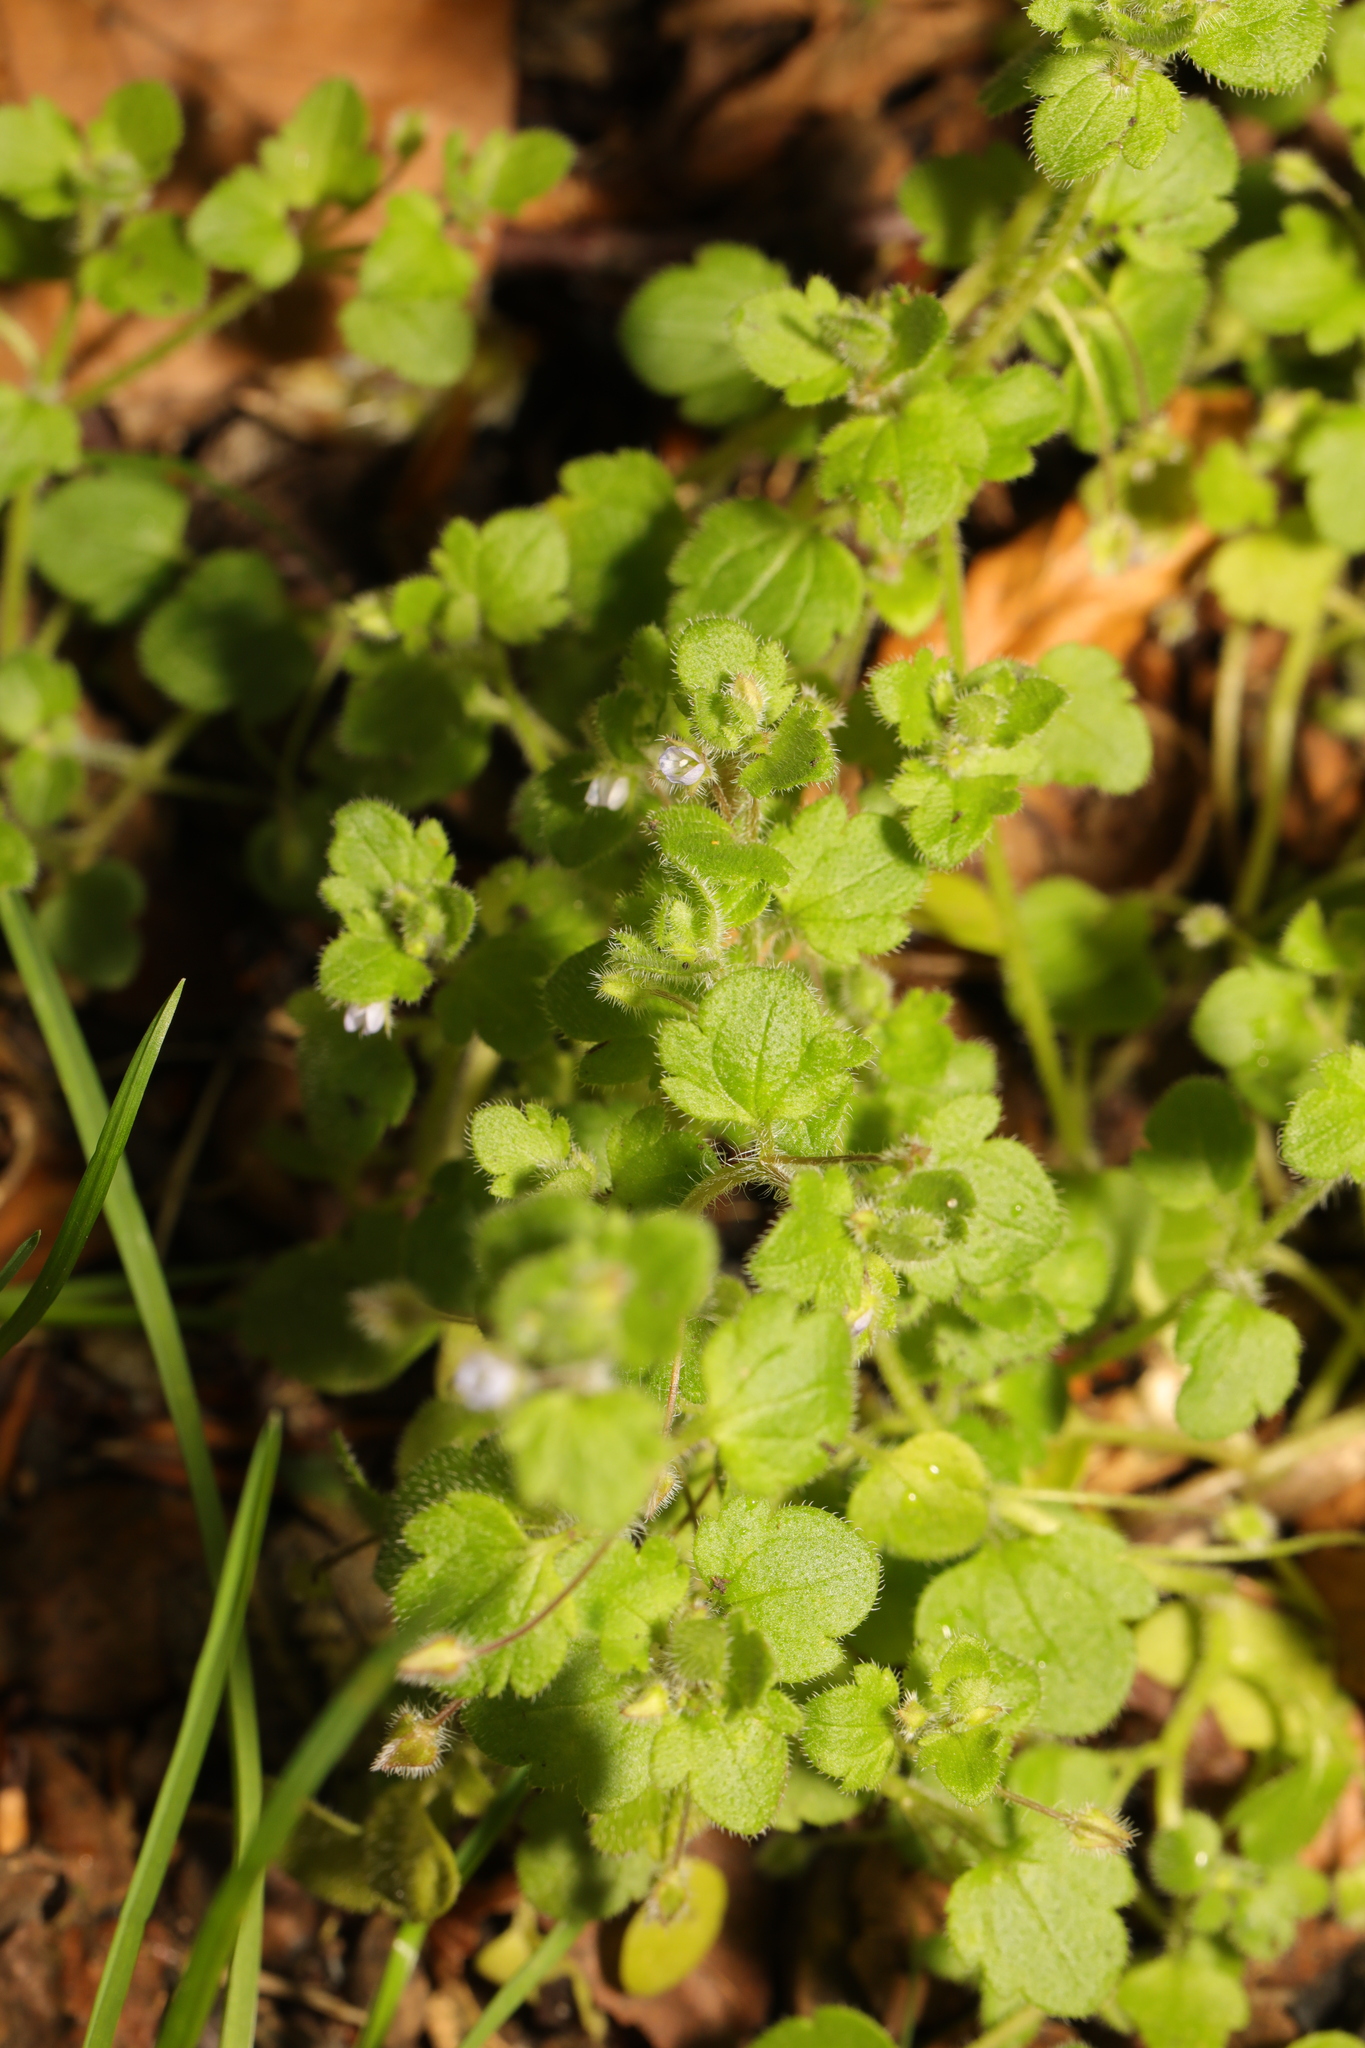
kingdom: Plantae
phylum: Tracheophyta
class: Magnoliopsida
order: Lamiales
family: Plantaginaceae
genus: Veronica
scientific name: Veronica sublobata
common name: False ivy-leaved speedwell
